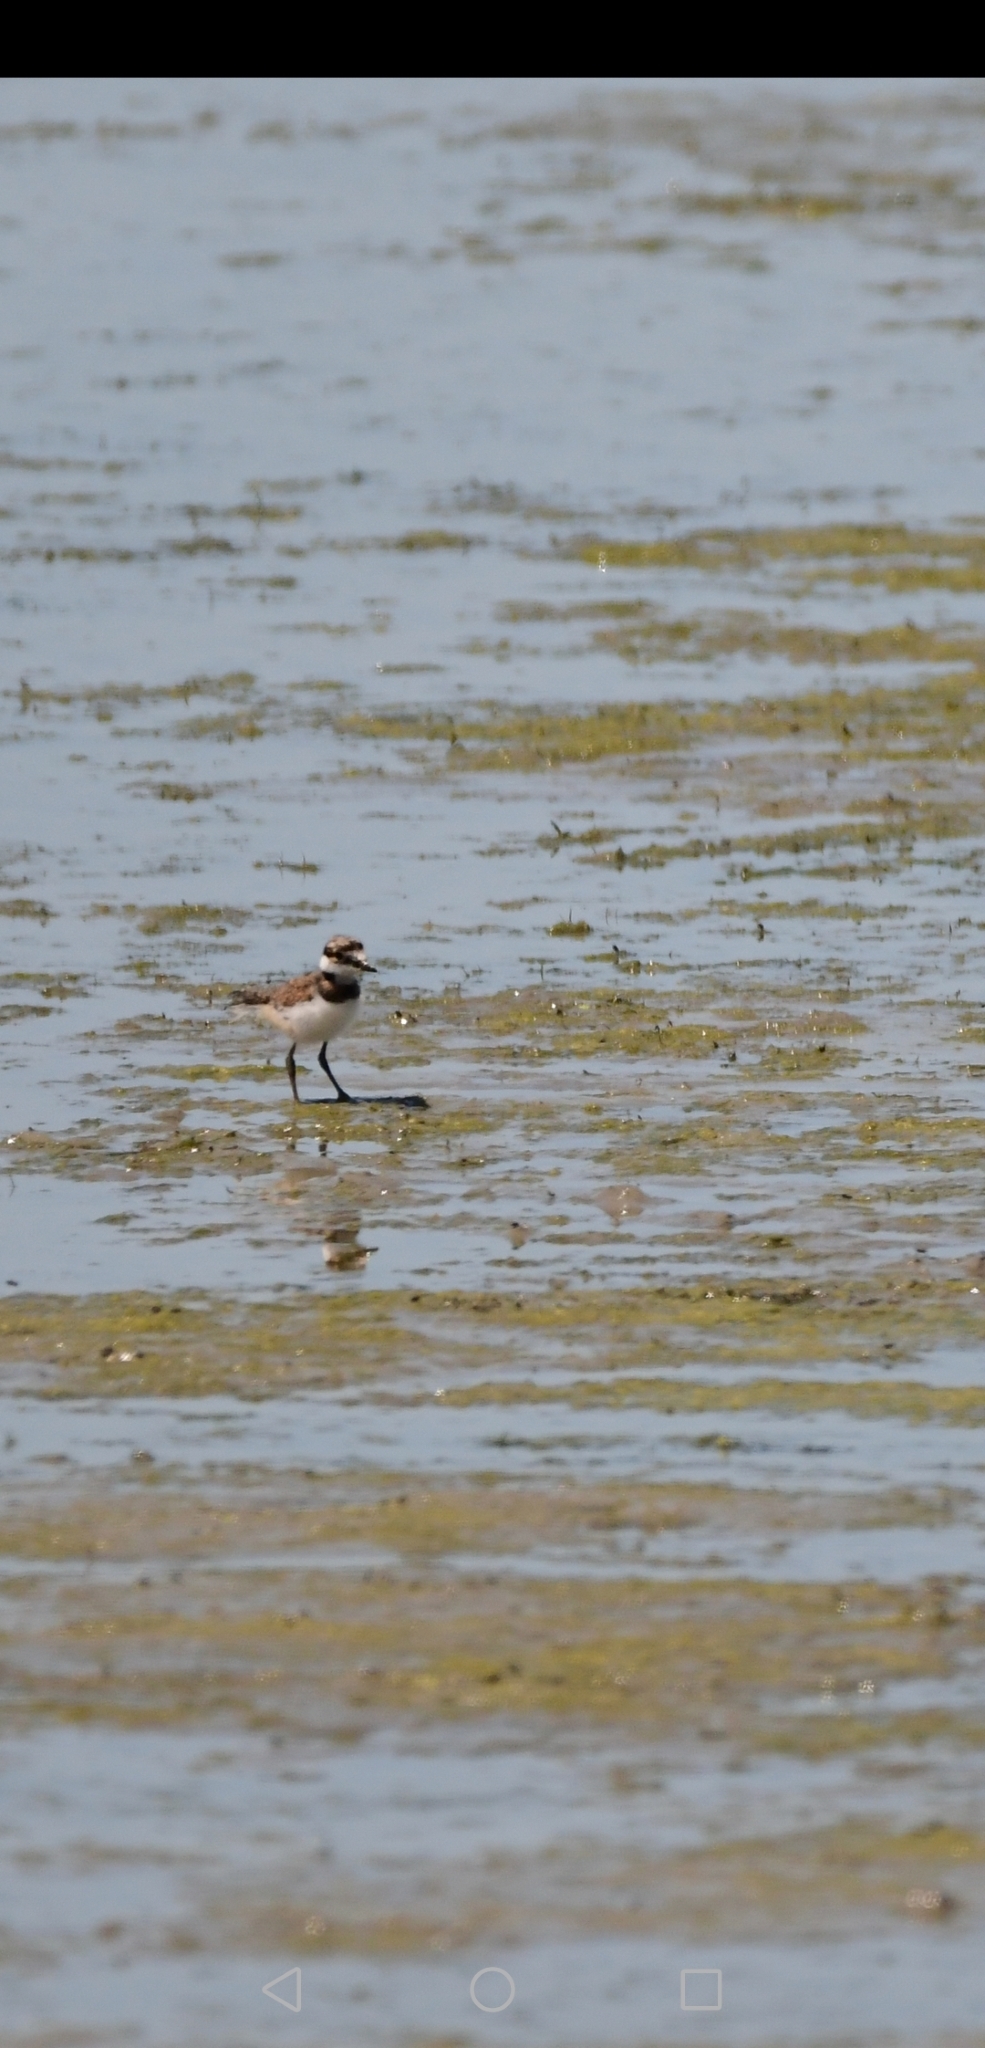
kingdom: Animalia
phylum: Chordata
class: Aves
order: Charadriiformes
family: Charadriidae
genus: Charadrius
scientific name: Charadrius vociferus
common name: Killdeer
